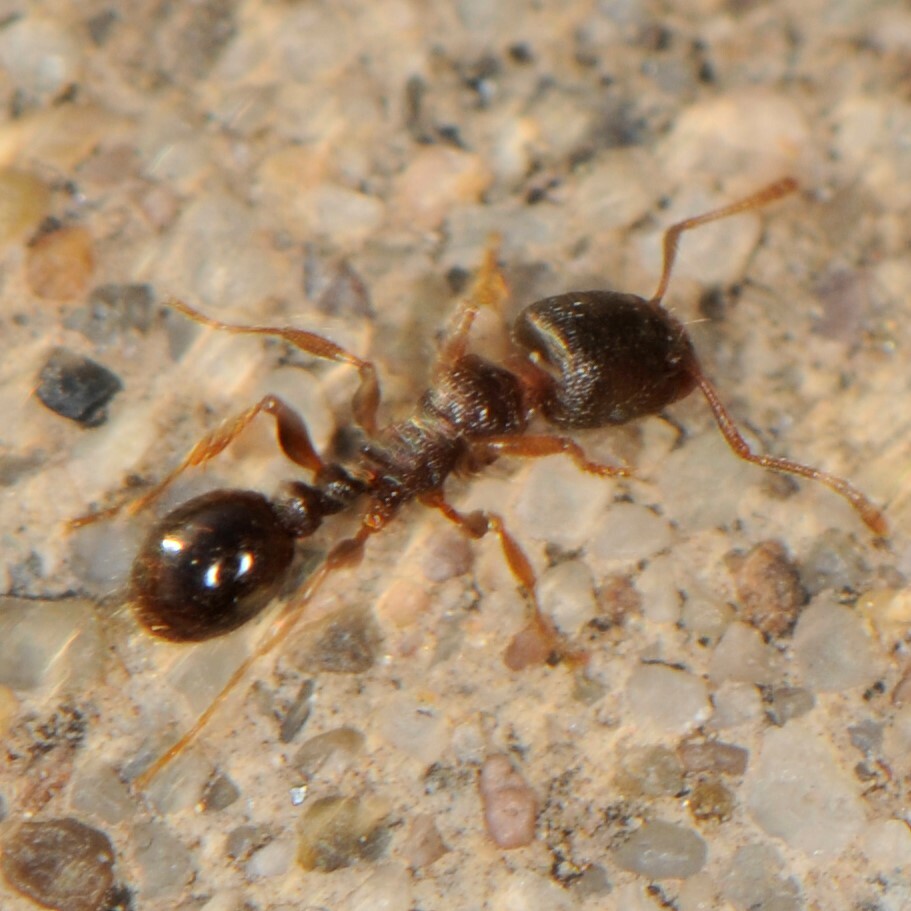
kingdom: Animalia
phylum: Arthropoda
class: Insecta
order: Hymenoptera
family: Formicidae
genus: Tetramorium
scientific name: Tetramorium immigrans
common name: Pavement ant
